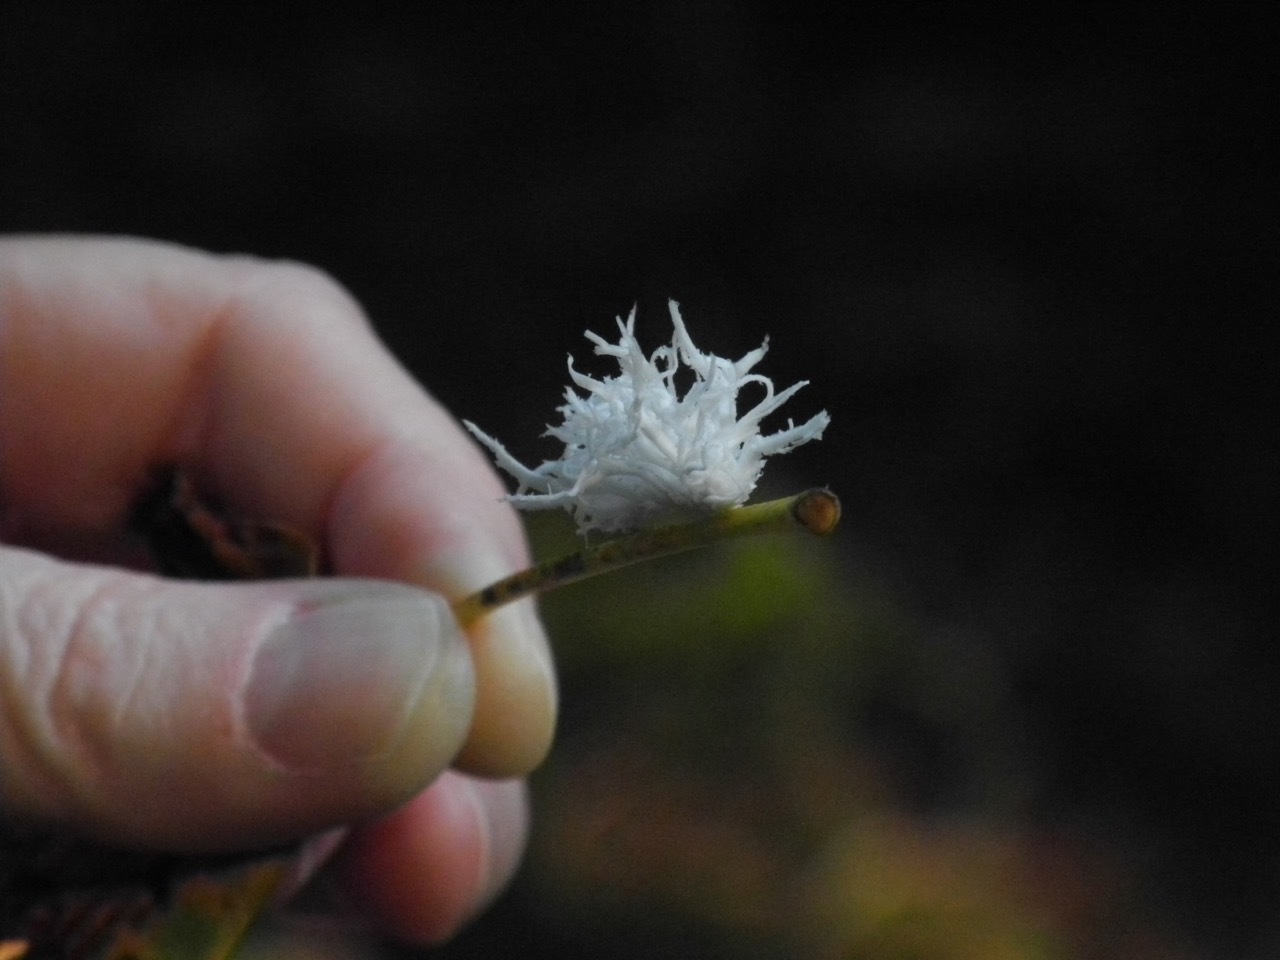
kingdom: Animalia
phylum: Arthropoda
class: Insecta
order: Hymenoptera
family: Tenthredinidae
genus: Eriocampa
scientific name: Eriocampa juglandis
